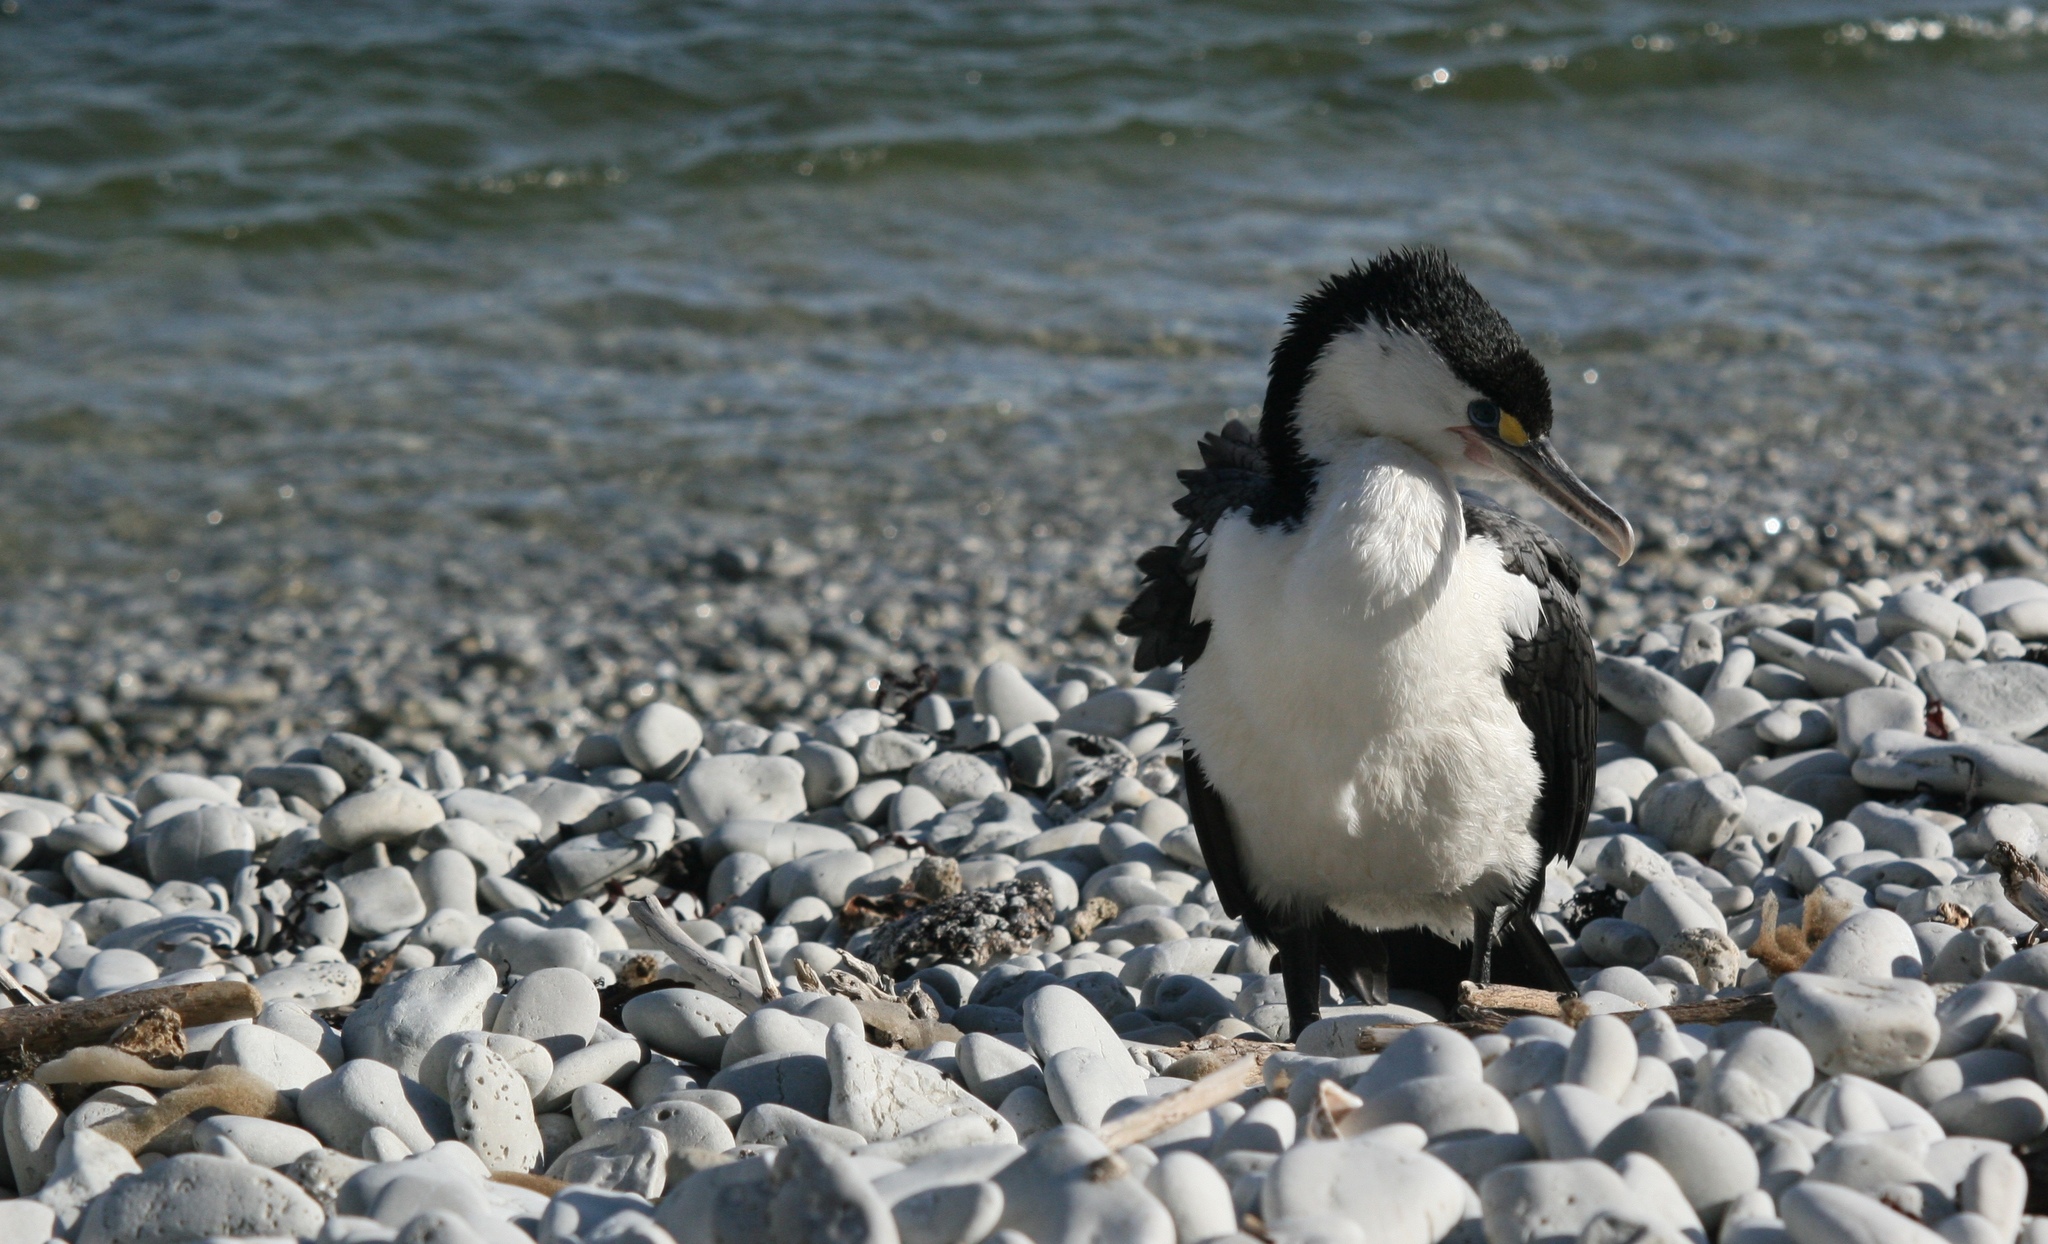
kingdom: Animalia
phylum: Chordata
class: Aves
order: Suliformes
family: Phalacrocoracidae
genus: Phalacrocorax
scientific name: Phalacrocorax varius
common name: Pied cormorant
